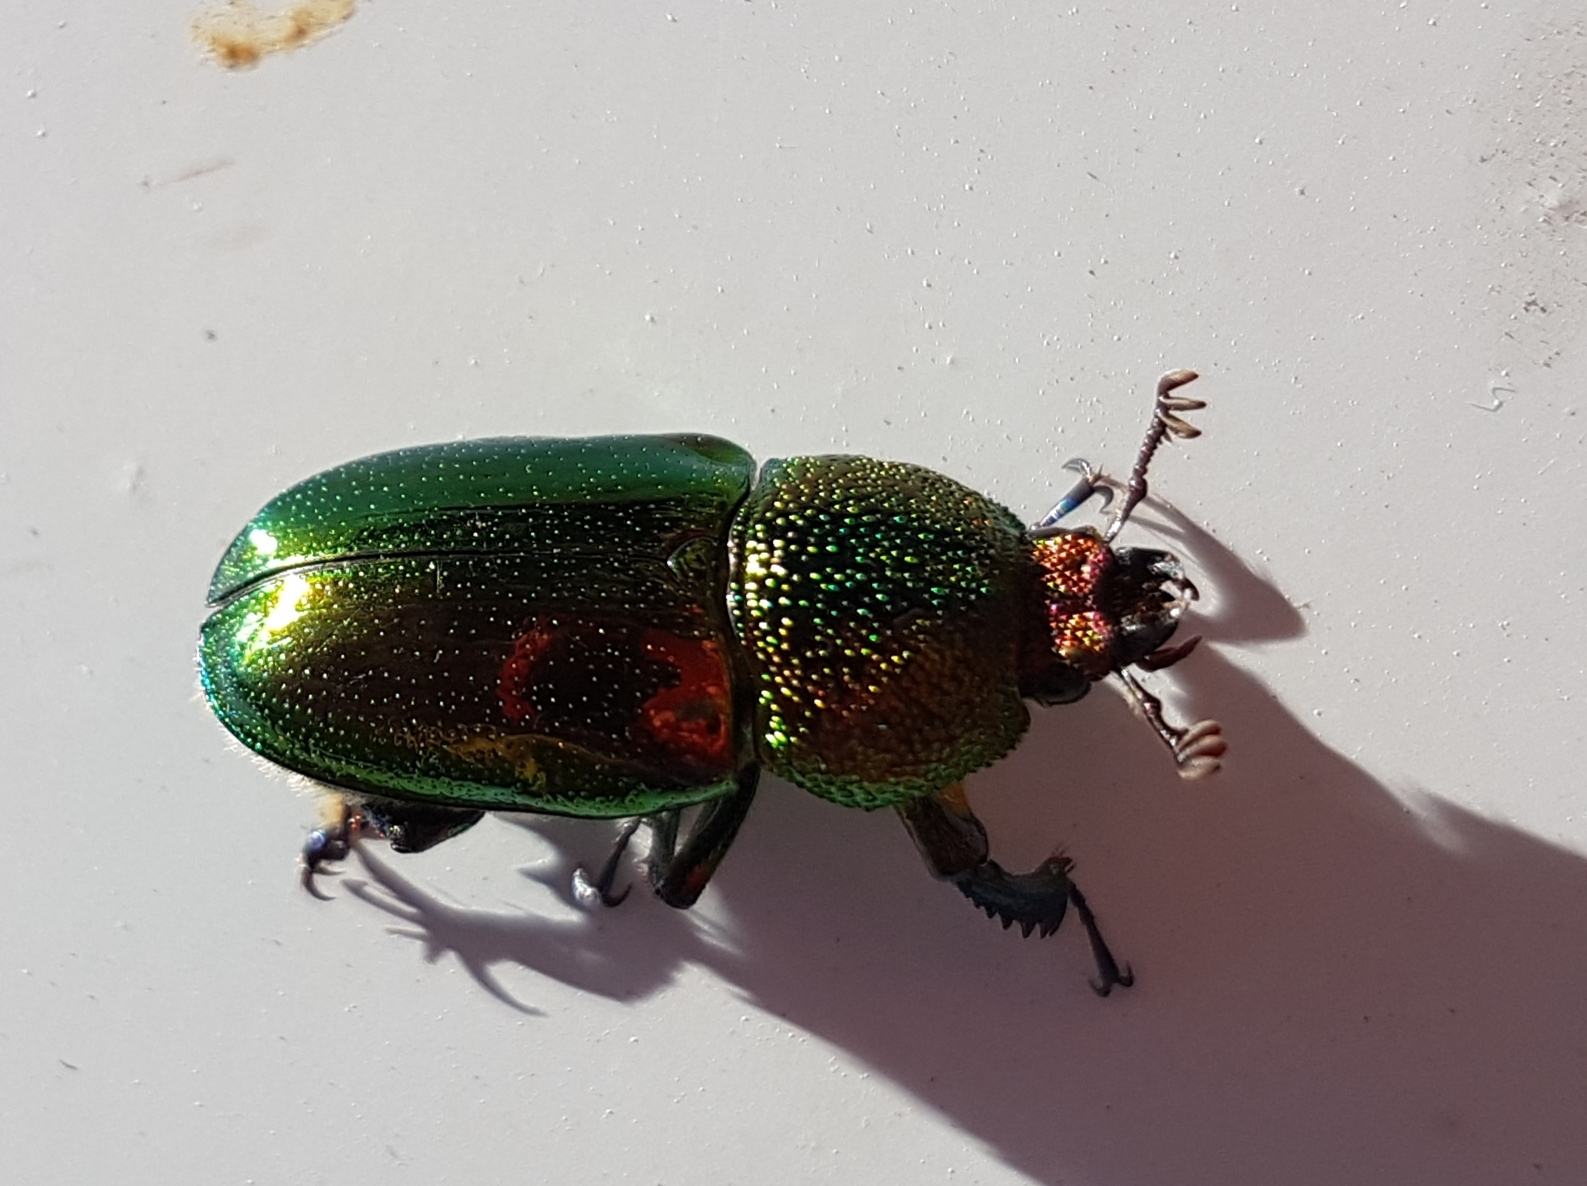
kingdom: Animalia
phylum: Arthropoda
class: Insecta
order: Coleoptera
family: Lucanidae
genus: Lamprima
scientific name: Lamprima aurata
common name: Golden stag beetle
